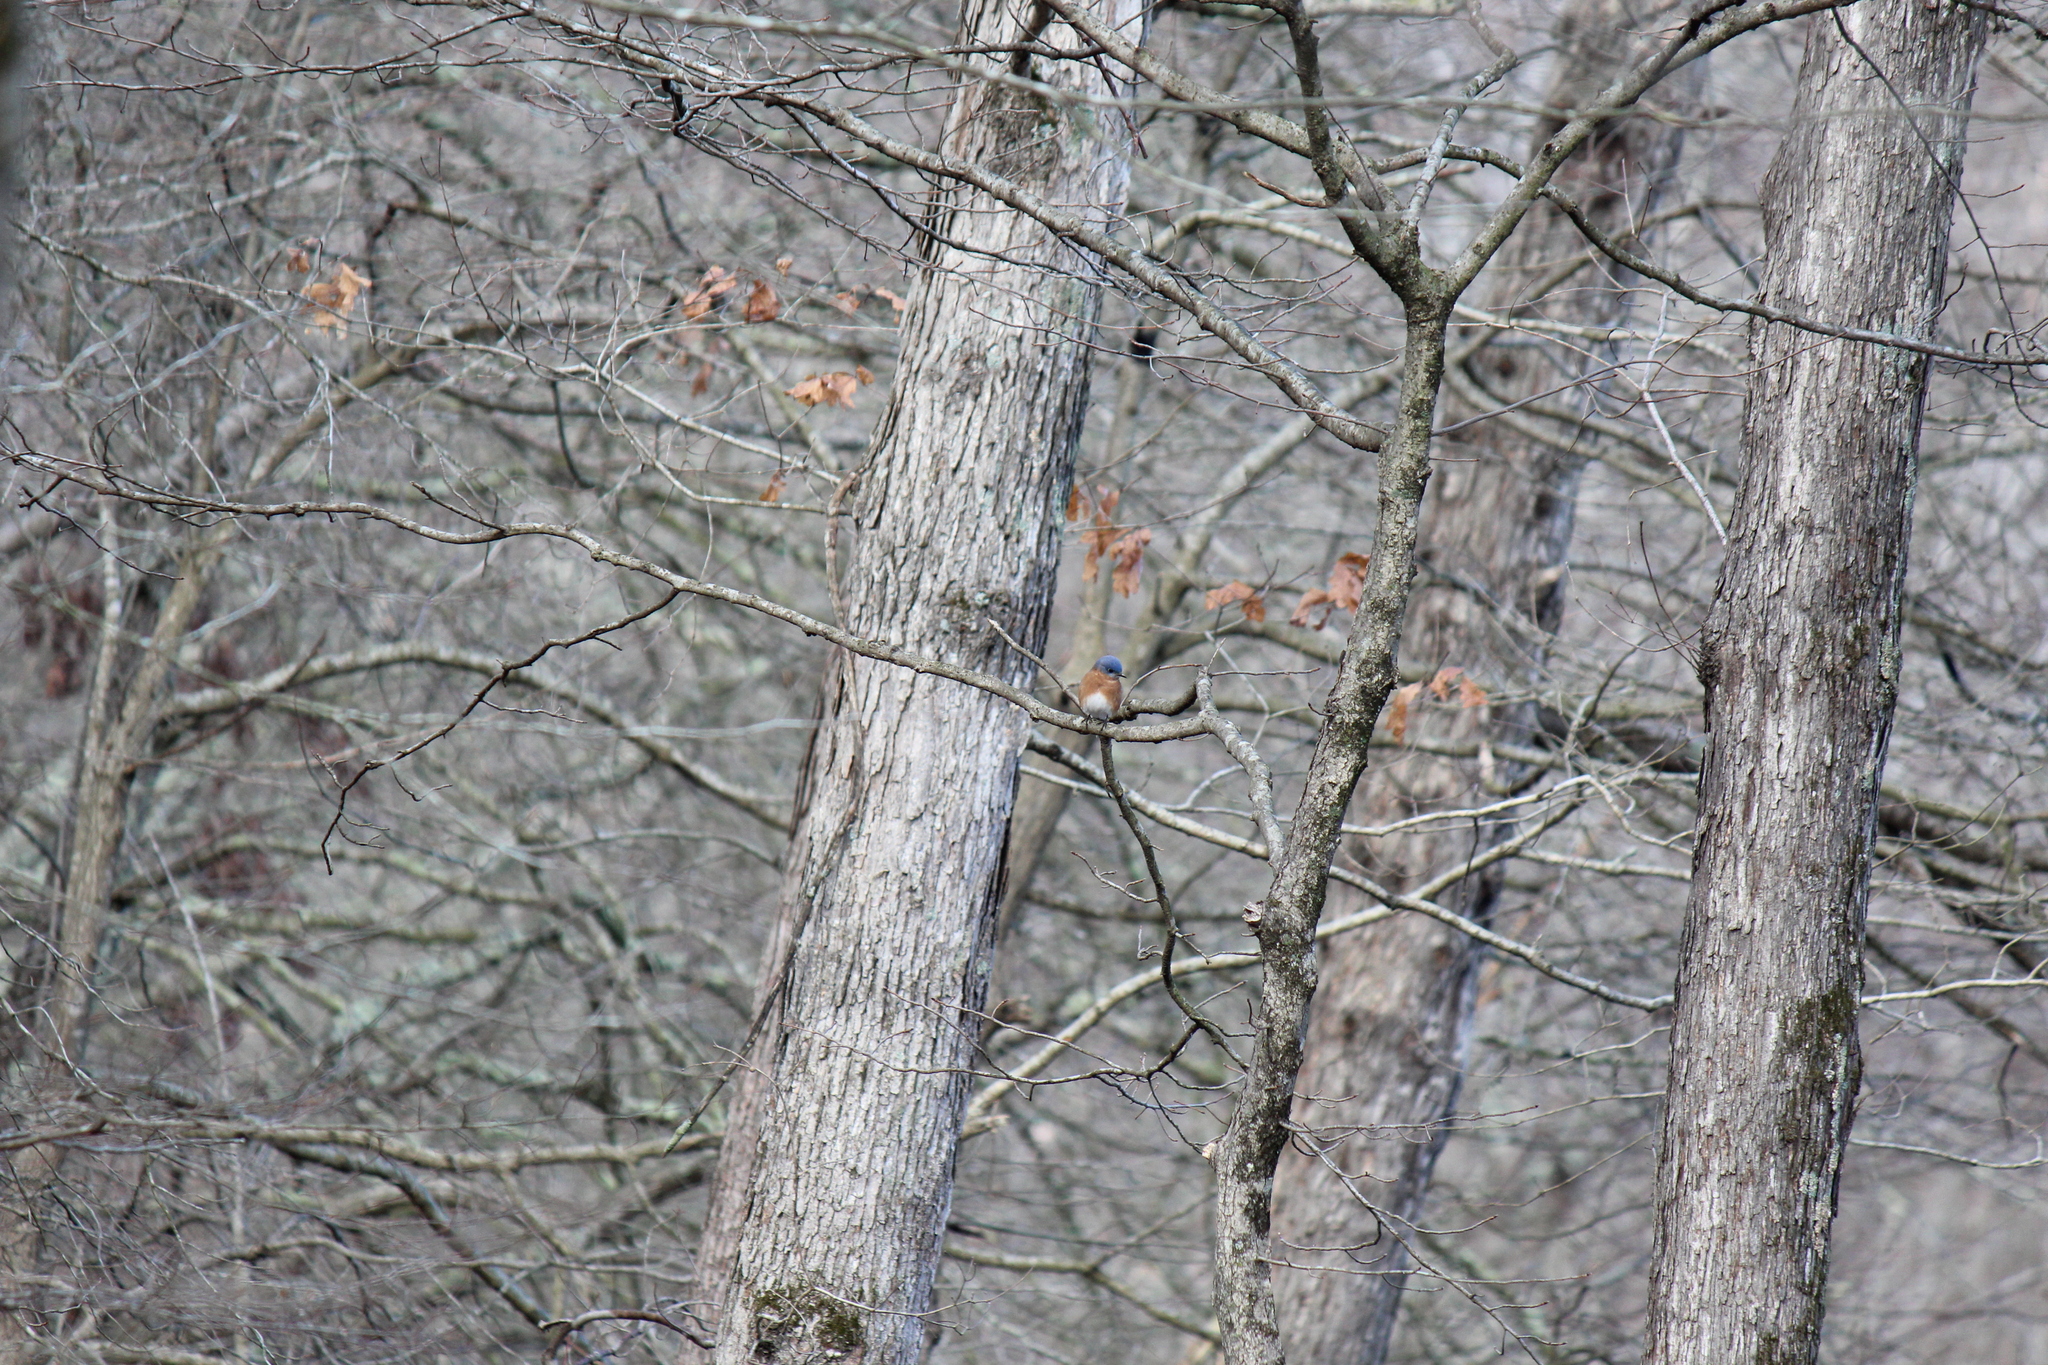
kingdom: Animalia
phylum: Chordata
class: Aves
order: Passeriformes
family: Turdidae
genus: Sialia
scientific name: Sialia sialis
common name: Eastern bluebird
